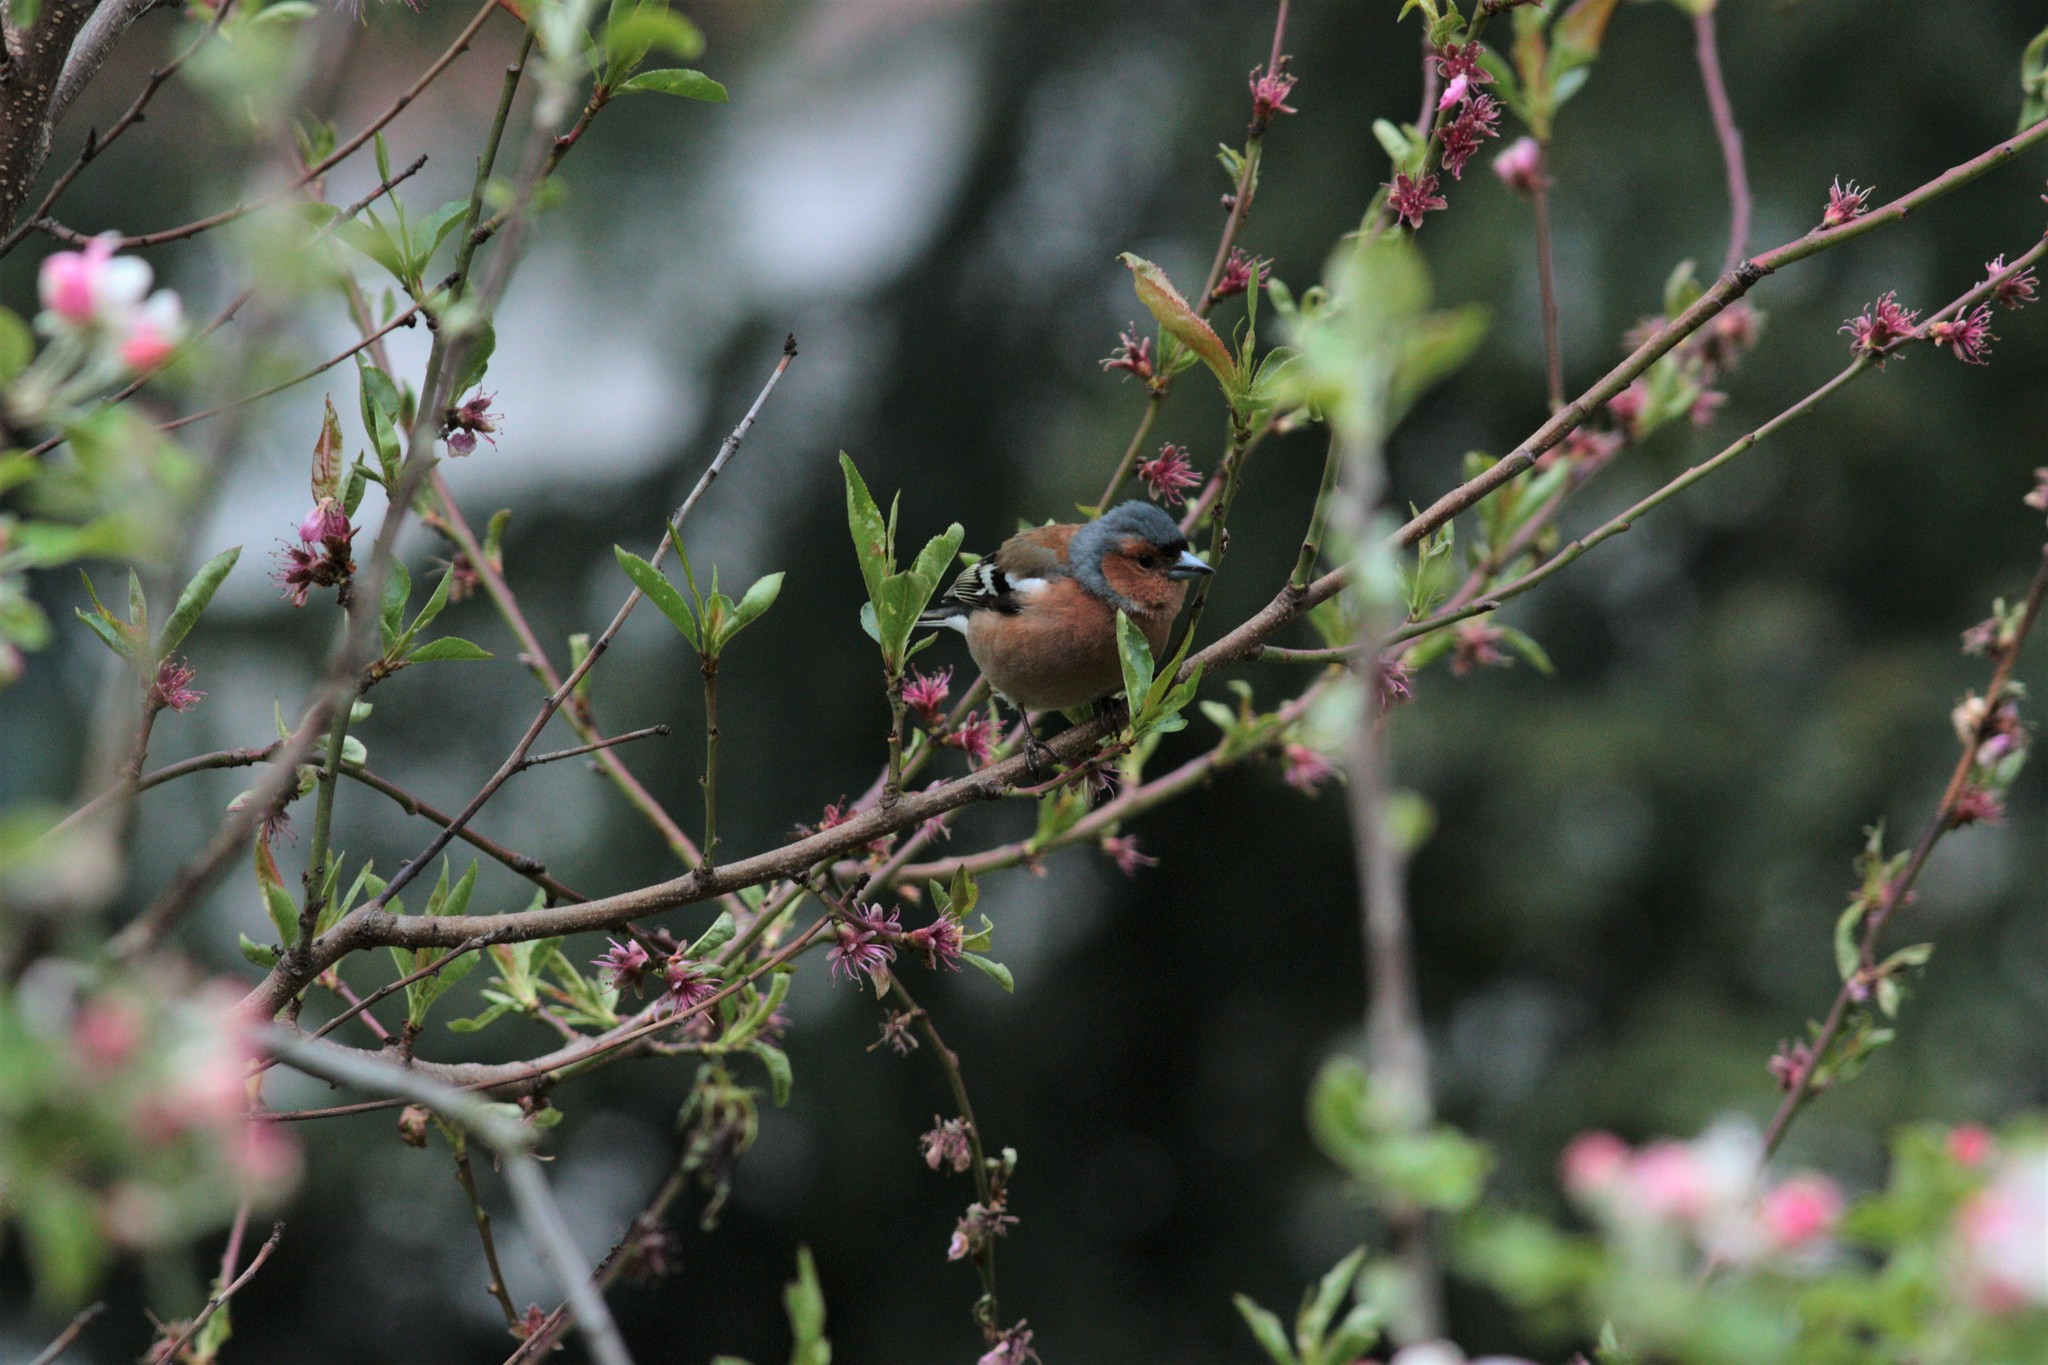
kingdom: Animalia
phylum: Chordata
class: Aves
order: Passeriformes
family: Fringillidae
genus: Fringilla
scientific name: Fringilla coelebs
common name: Common chaffinch
